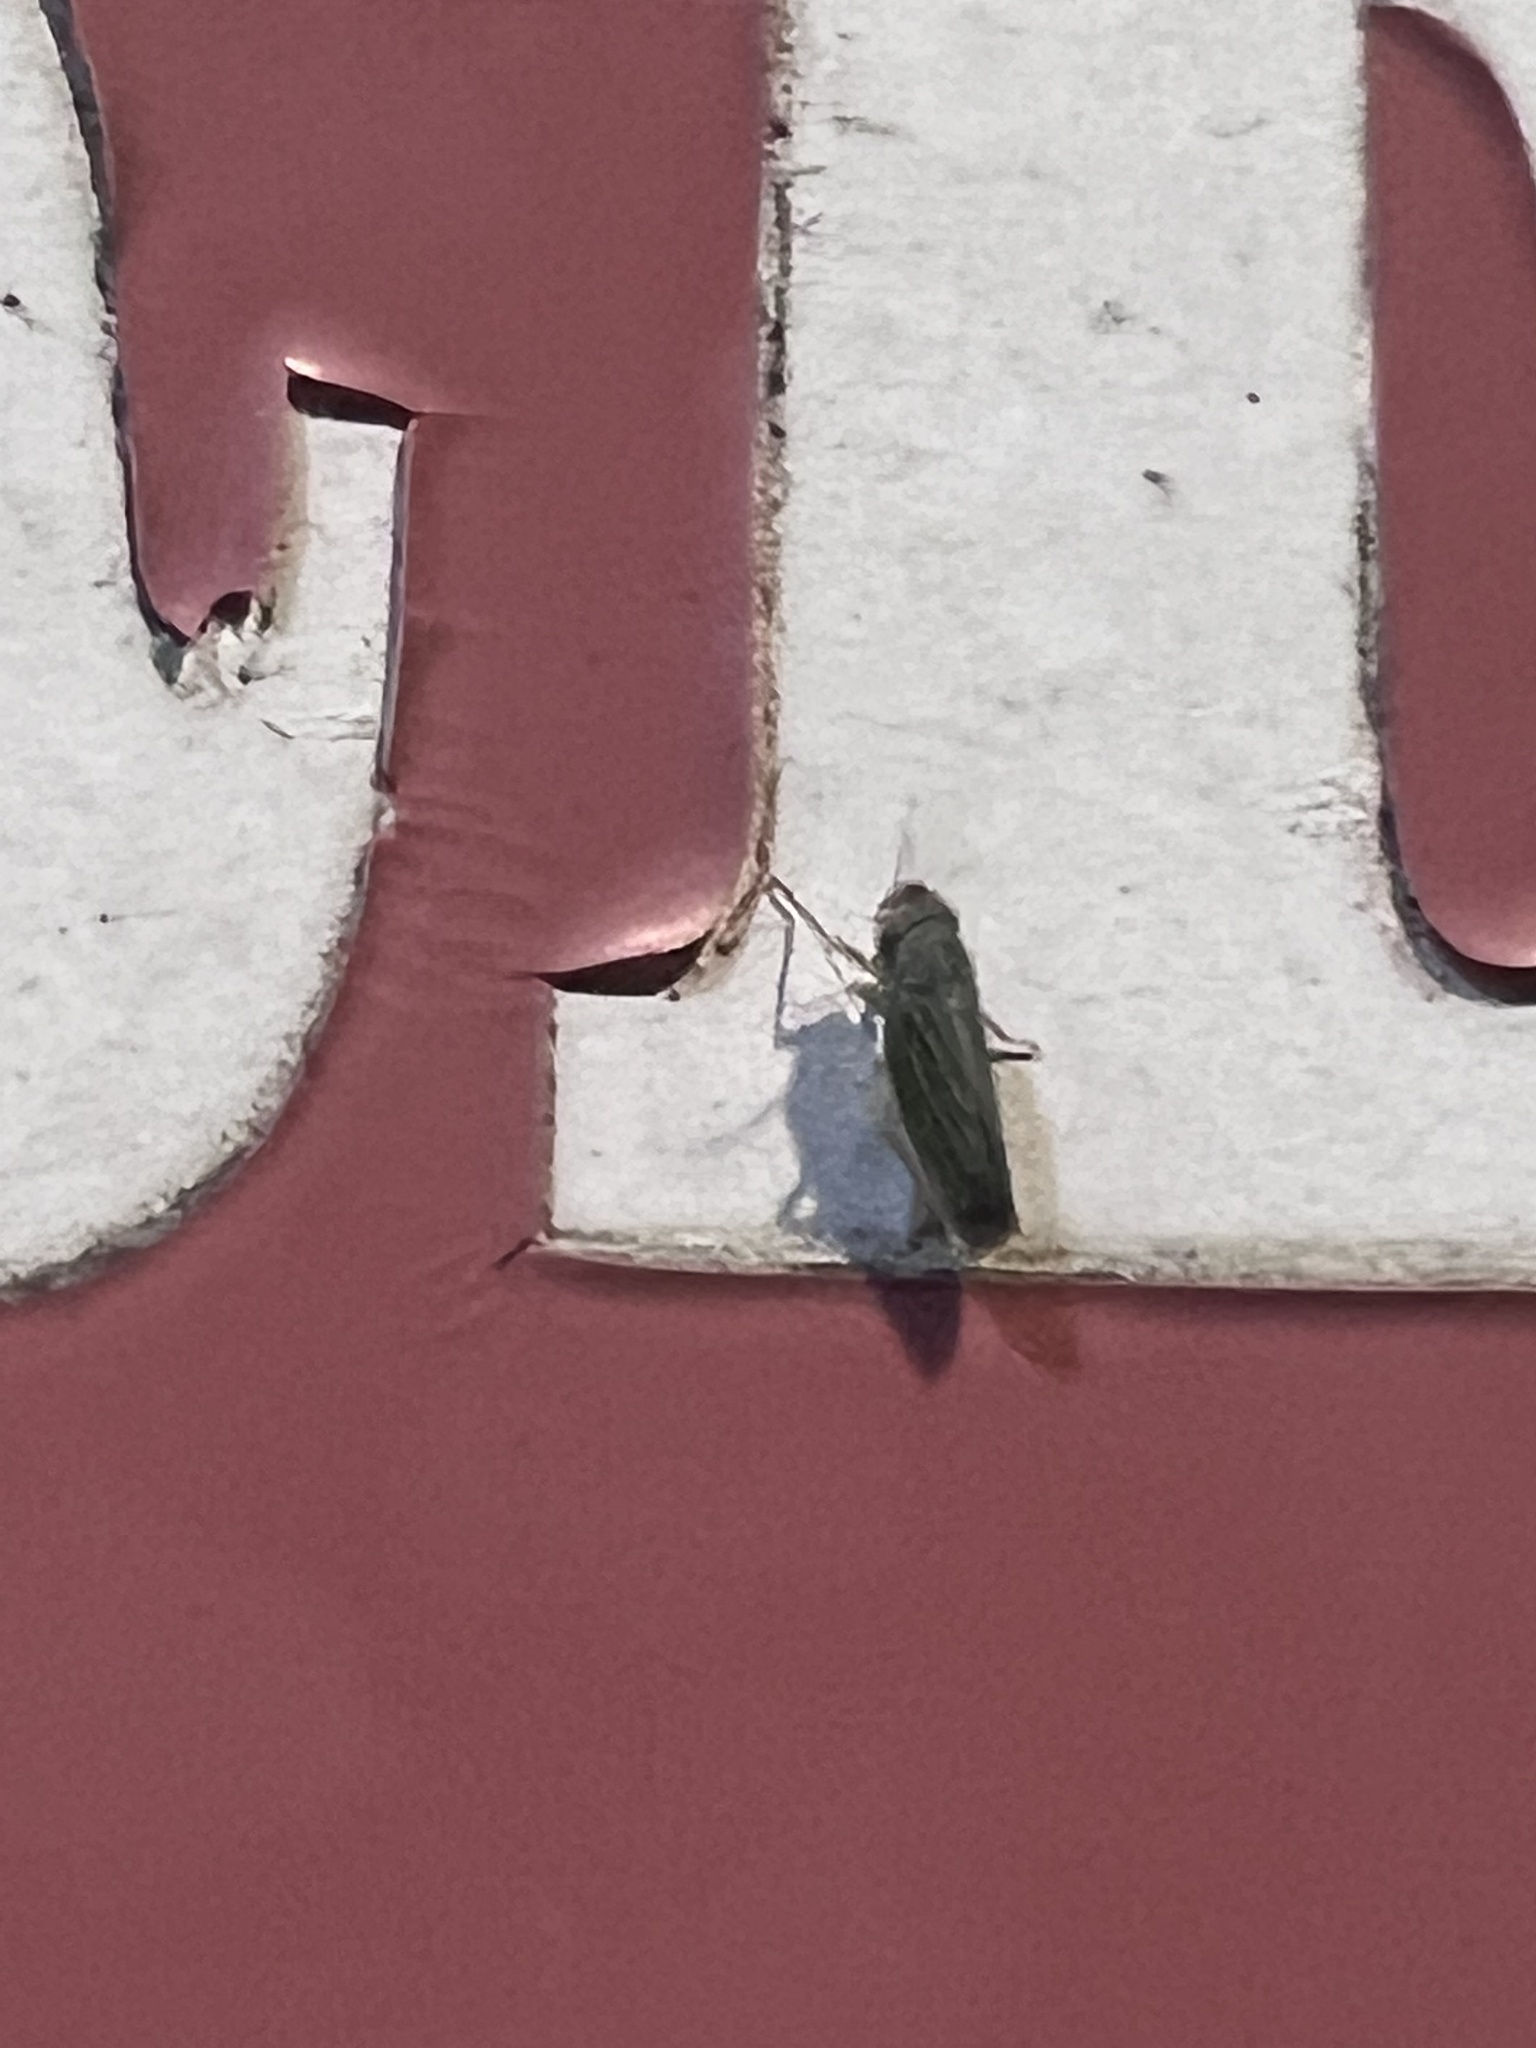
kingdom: Animalia
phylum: Arthropoda
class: Insecta
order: Hemiptera
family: Cicadellidae
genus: Xyphon
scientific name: Xyphon reticulatum
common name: Planthopper
